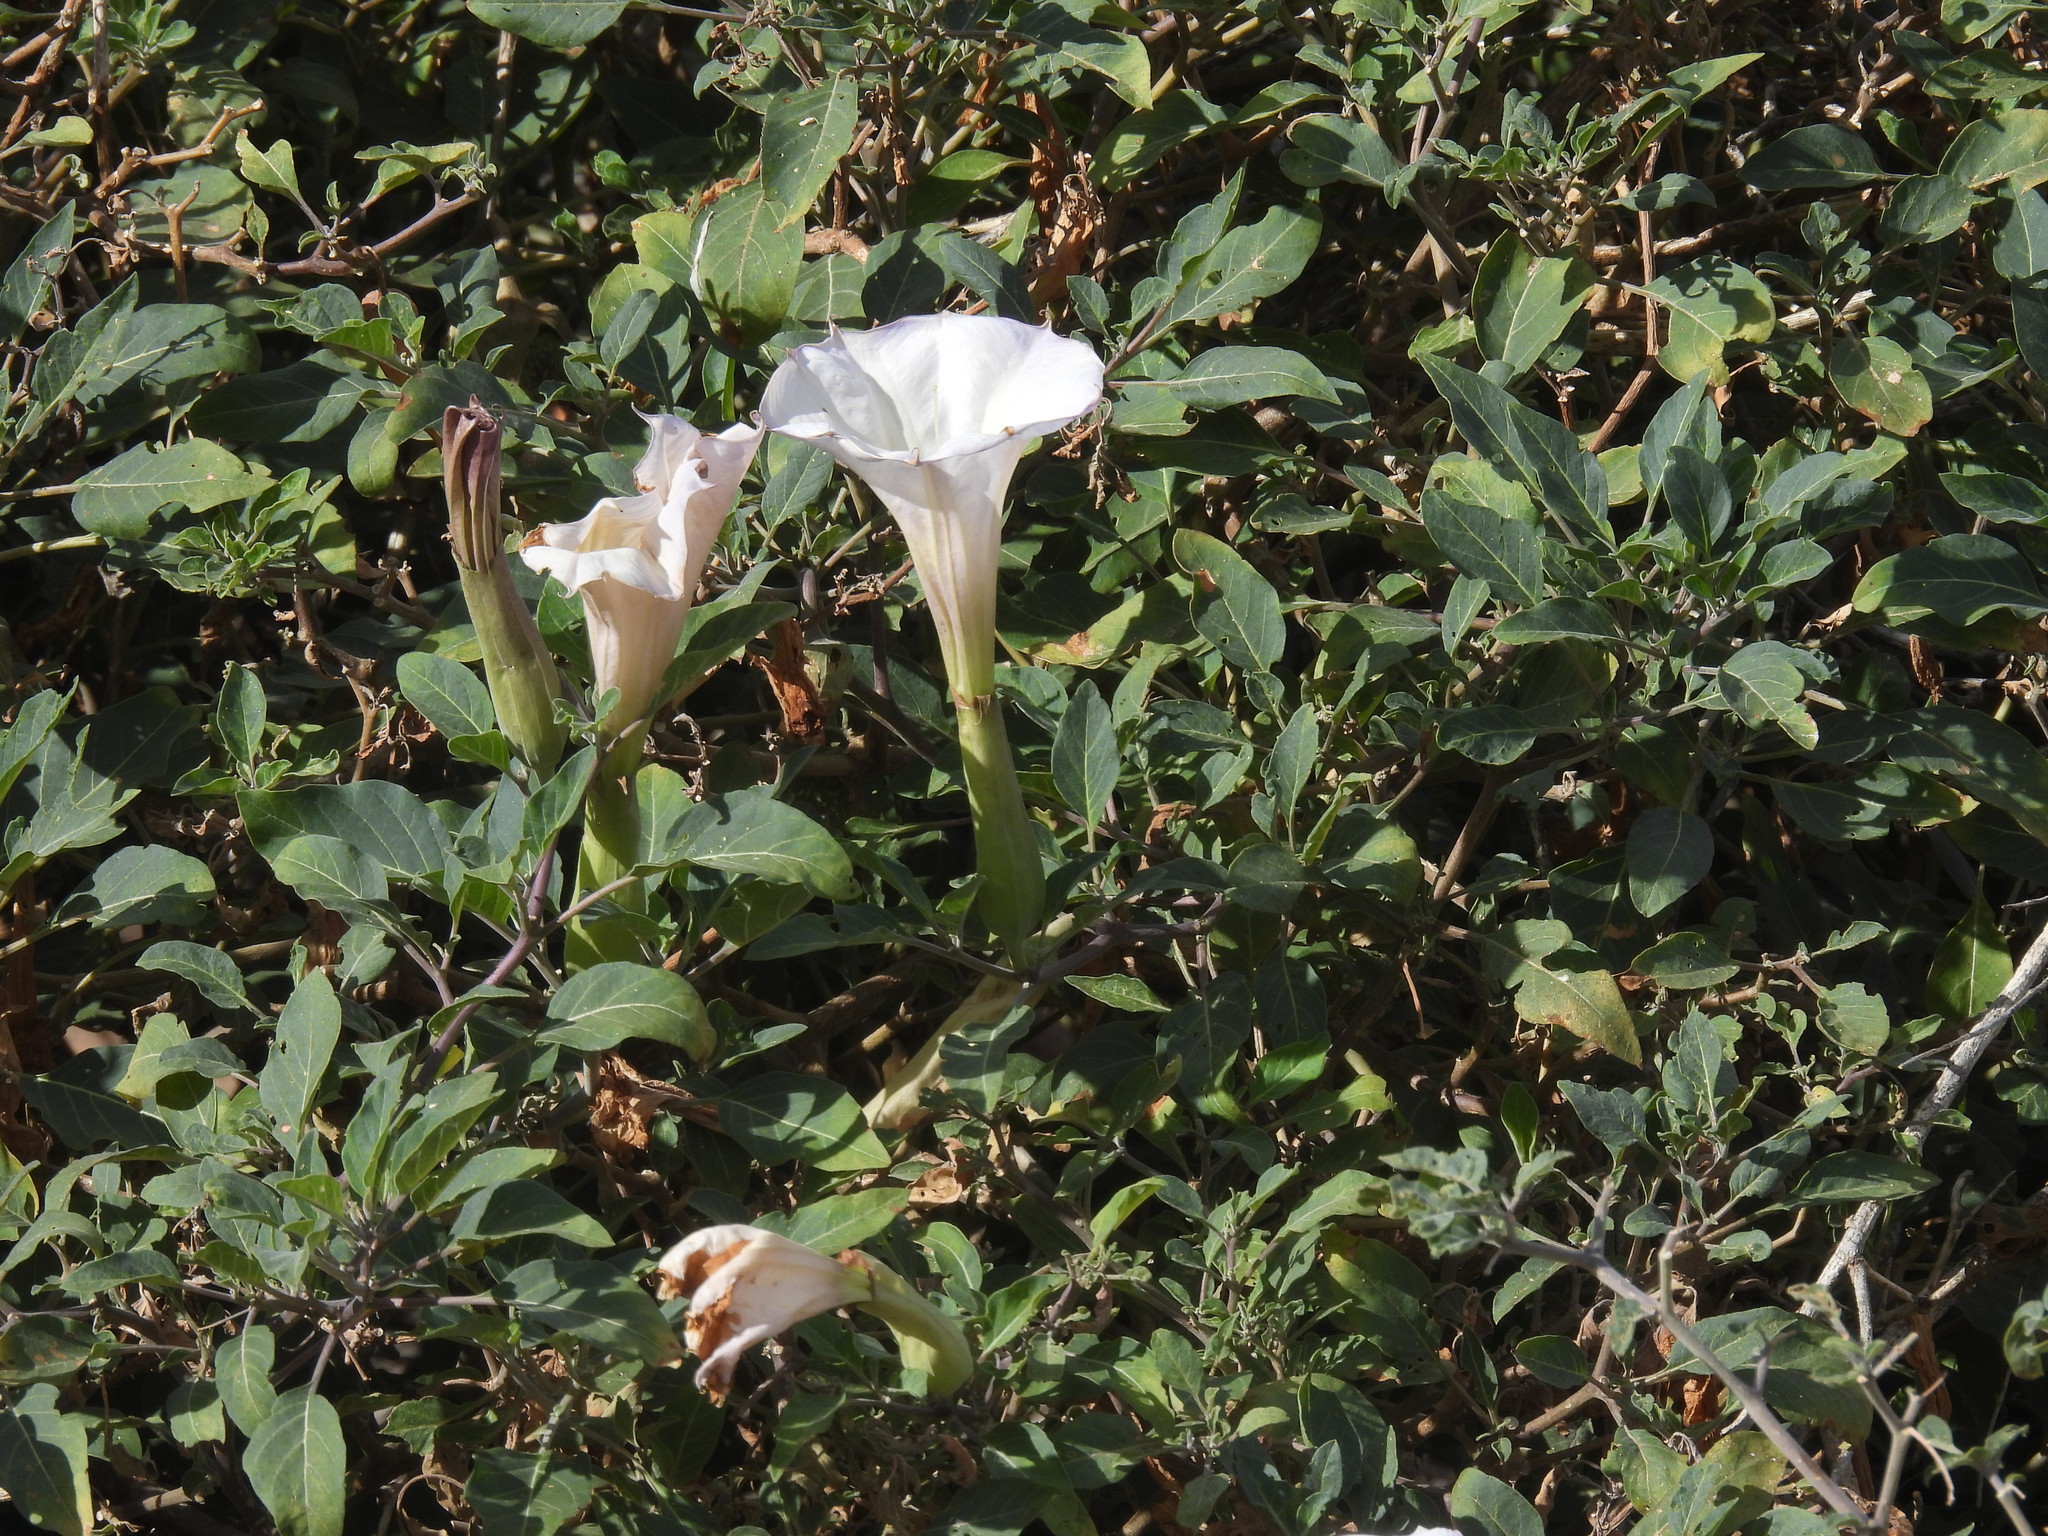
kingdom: Plantae
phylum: Tracheophyta
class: Magnoliopsida
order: Solanales
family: Solanaceae
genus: Datura
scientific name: Datura wrightii
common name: Sacred thorn-apple
